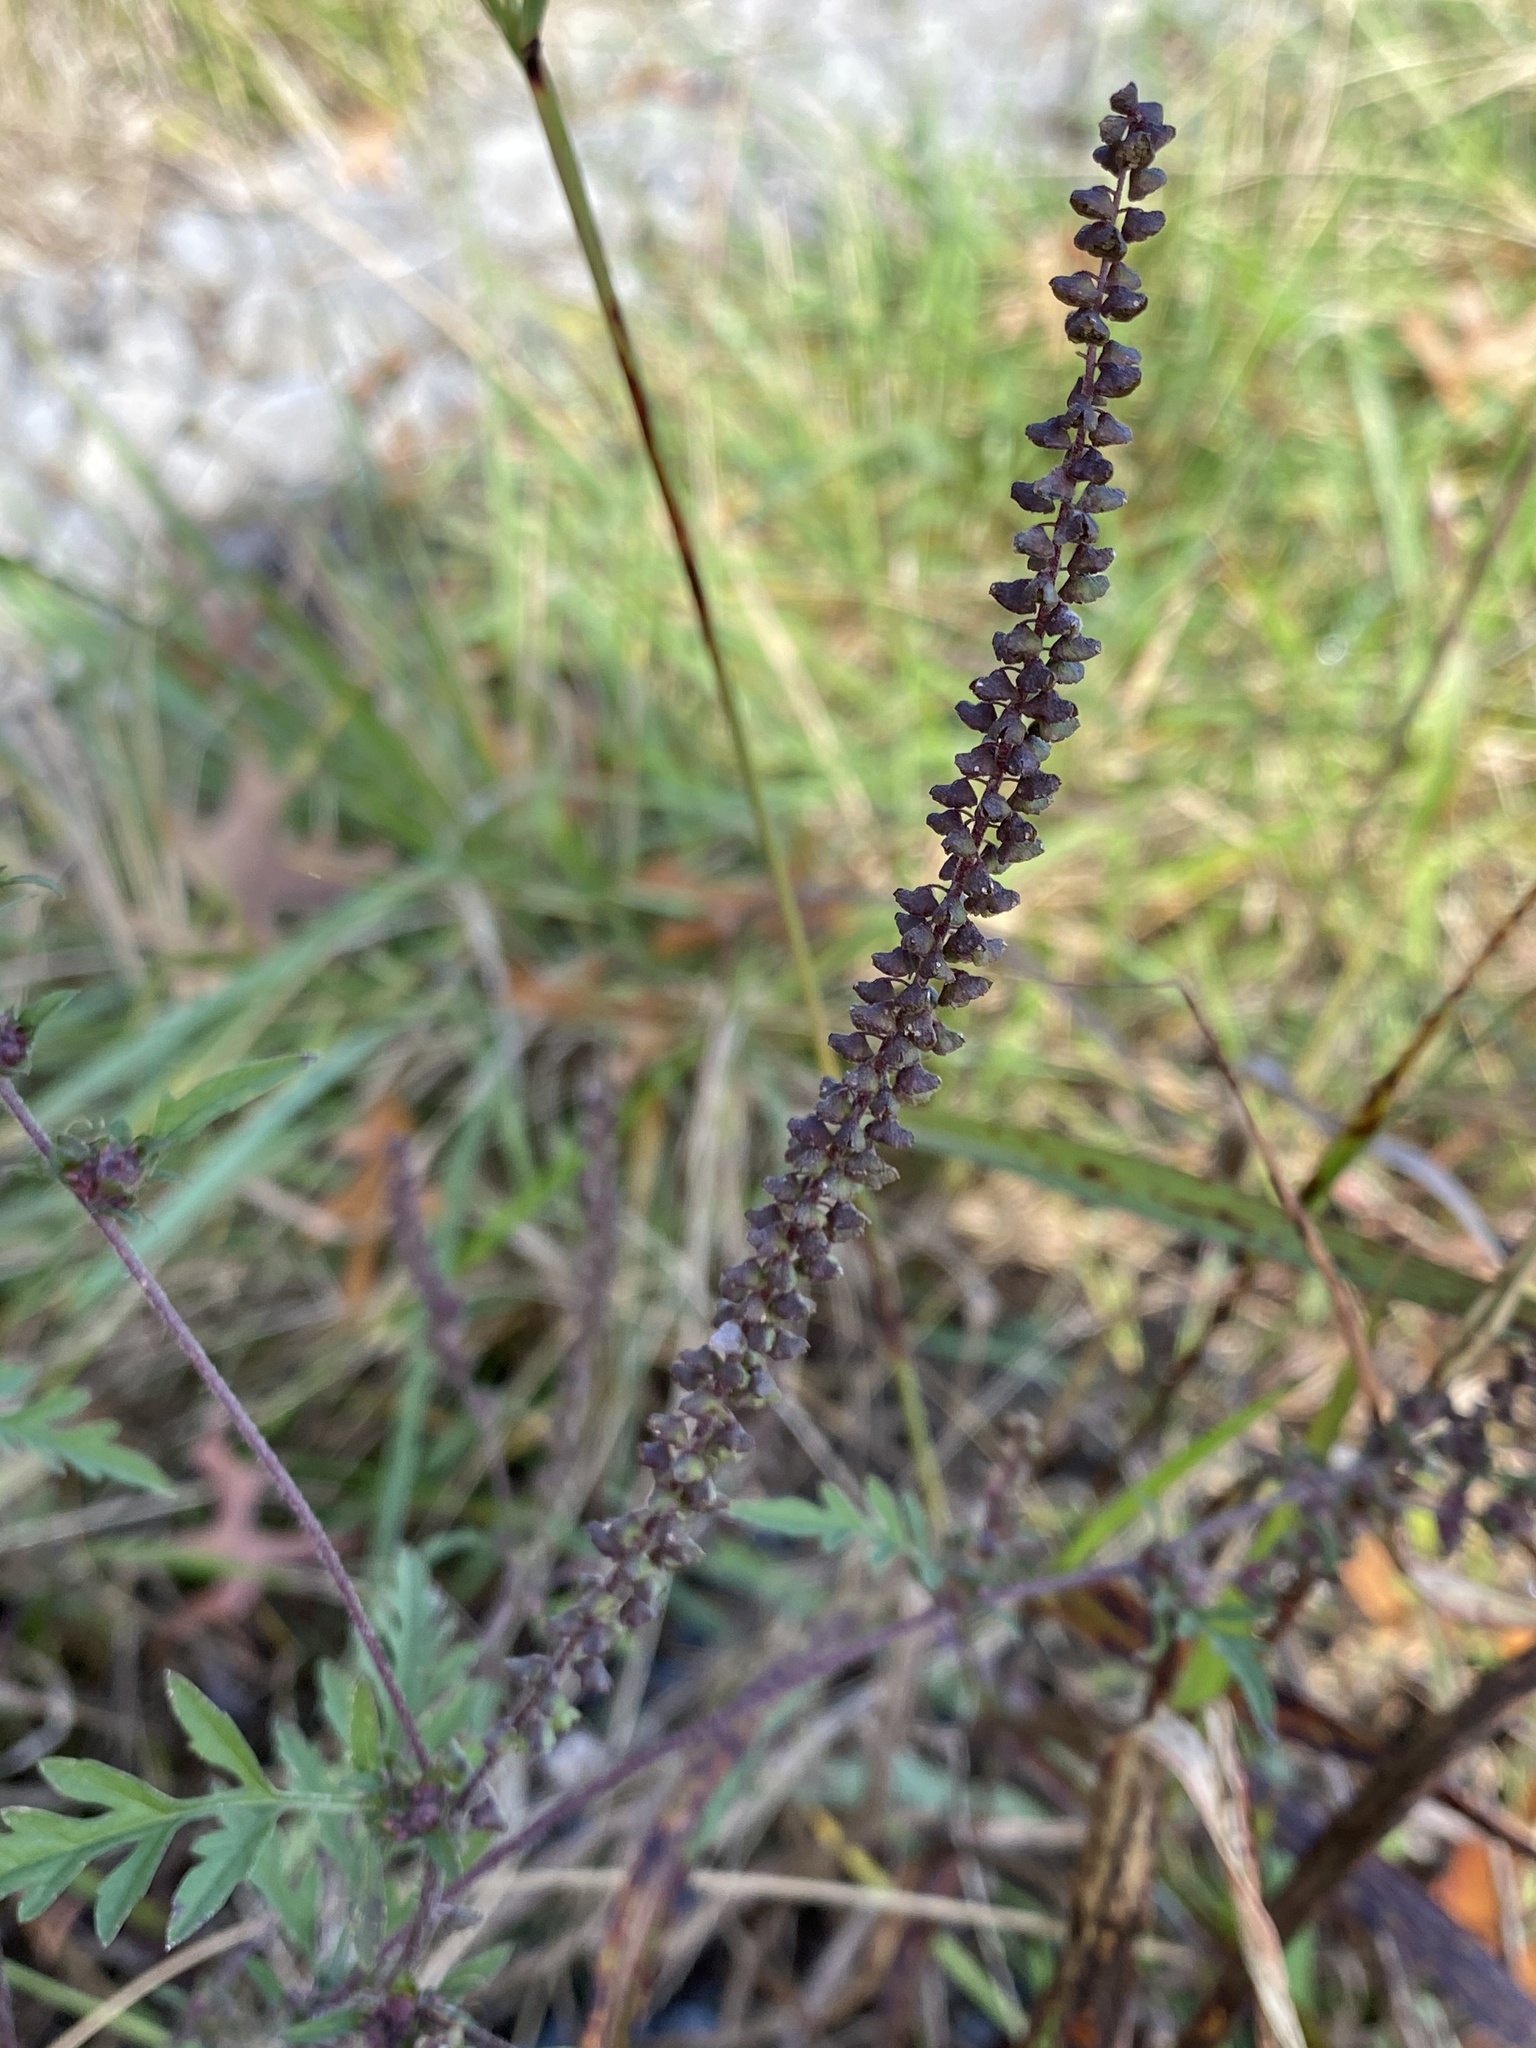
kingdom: Plantae
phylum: Tracheophyta
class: Magnoliopsida
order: Asterales
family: Asteraceae
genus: Ambrosia
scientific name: Ambrosia artemisiifolia
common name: Annual ragweed
